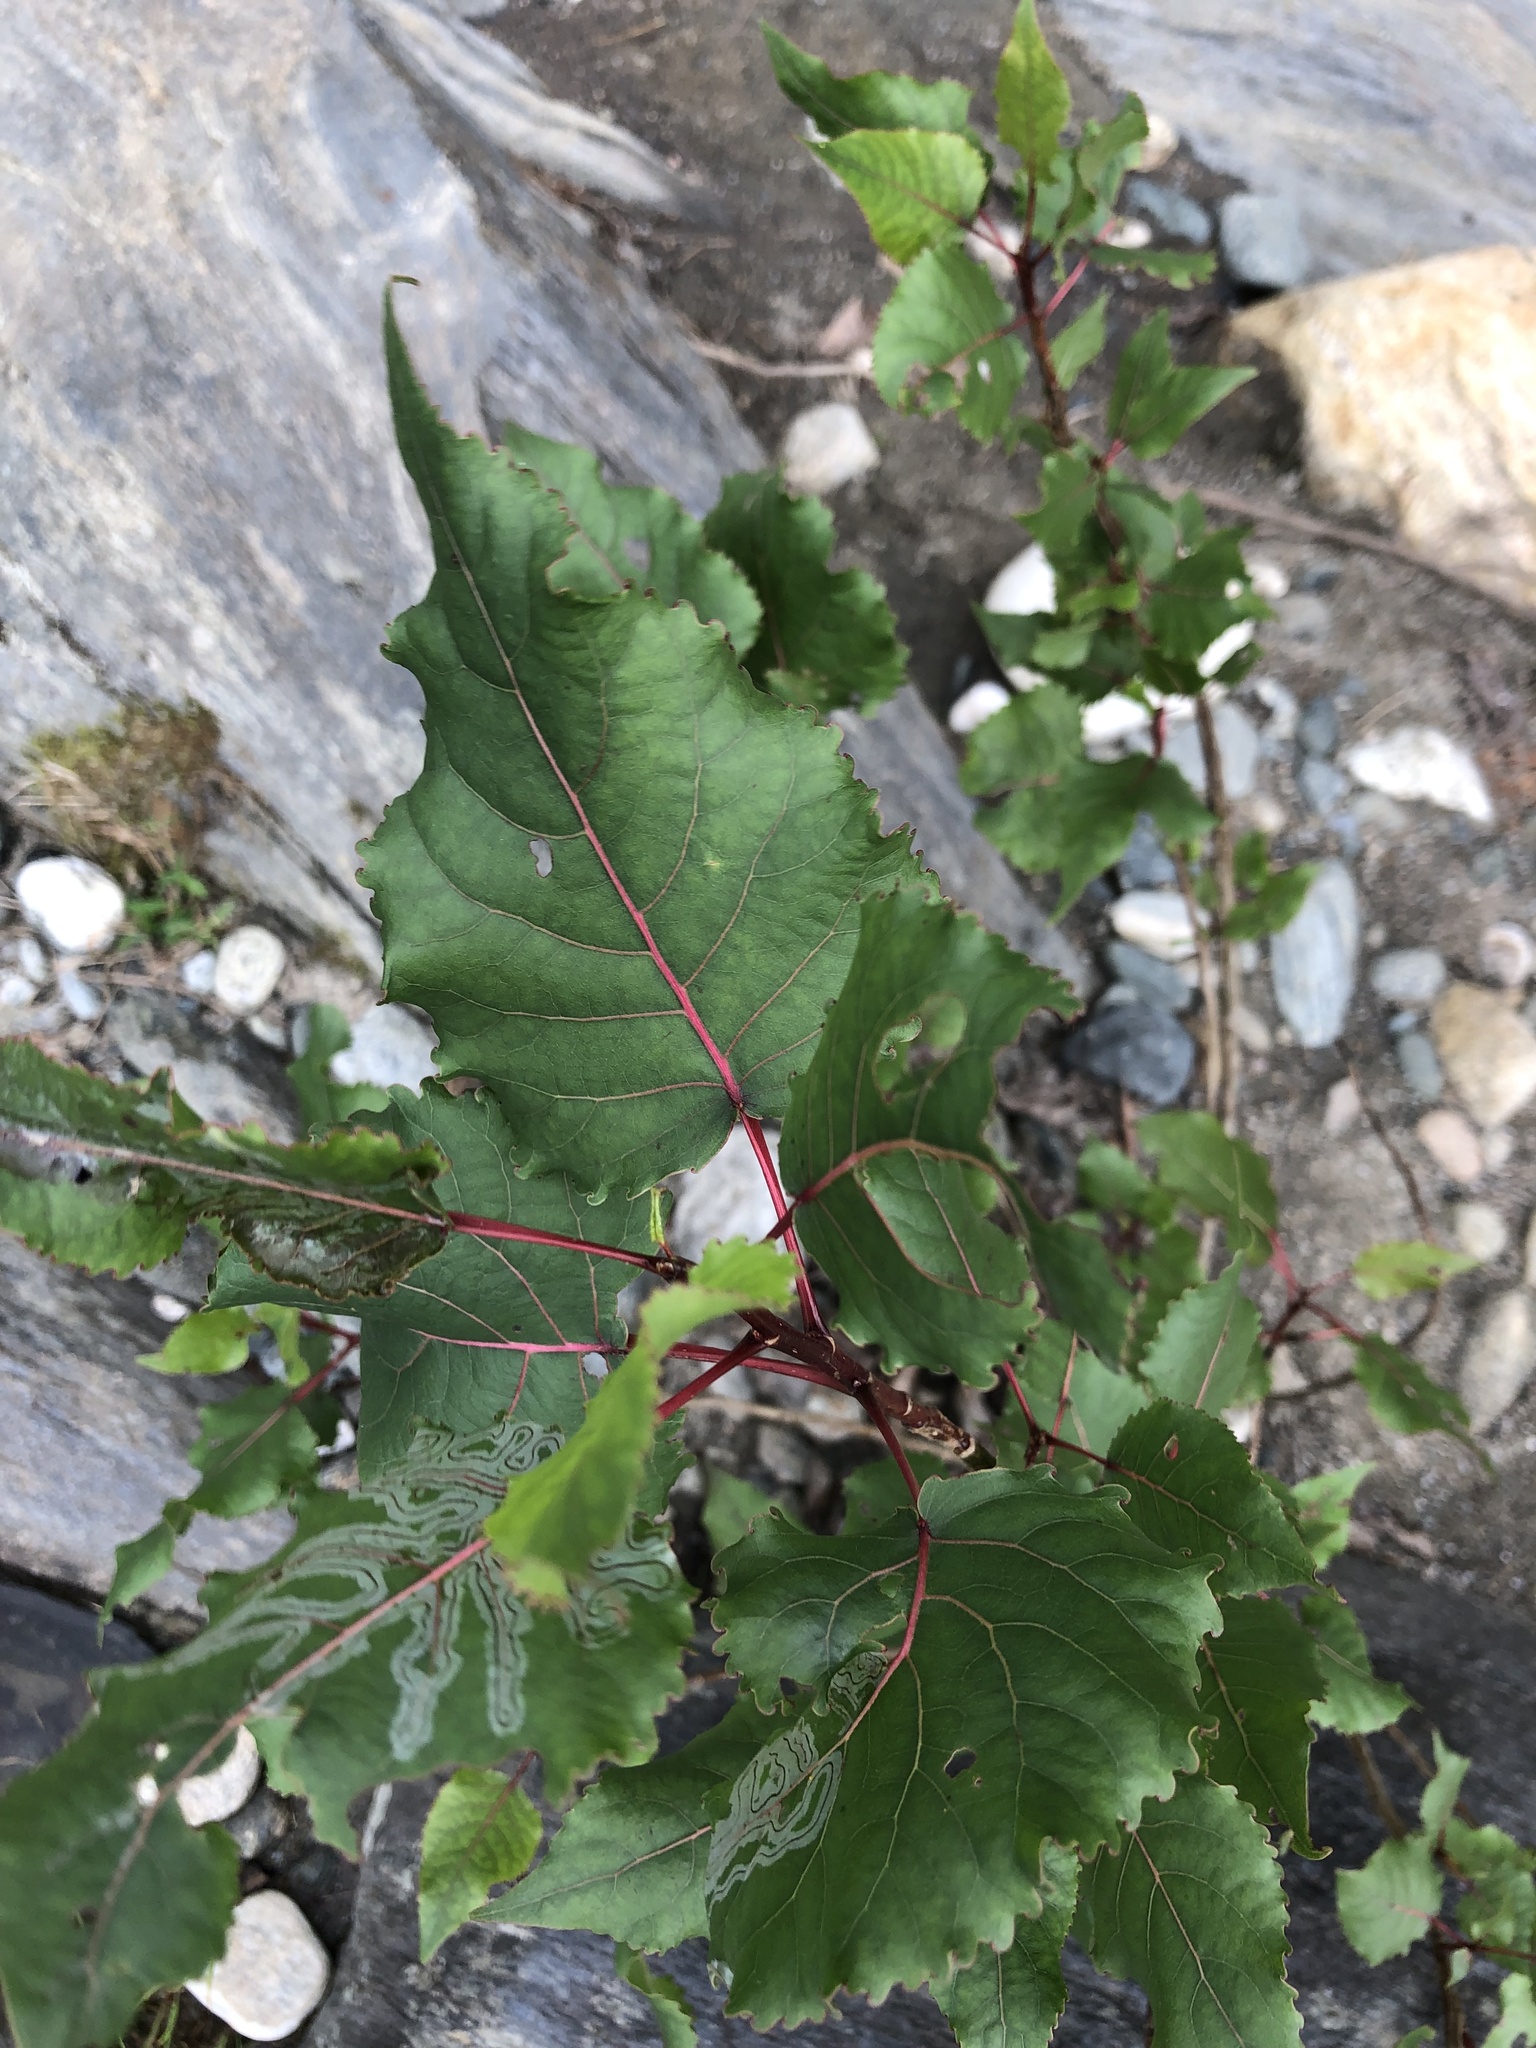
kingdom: Plantae
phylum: Tracheophyta
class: Magnoliopsida
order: Malpighiales
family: Salicaceae
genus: Populus
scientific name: Populus deltoides
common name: Eastern cottonwood
